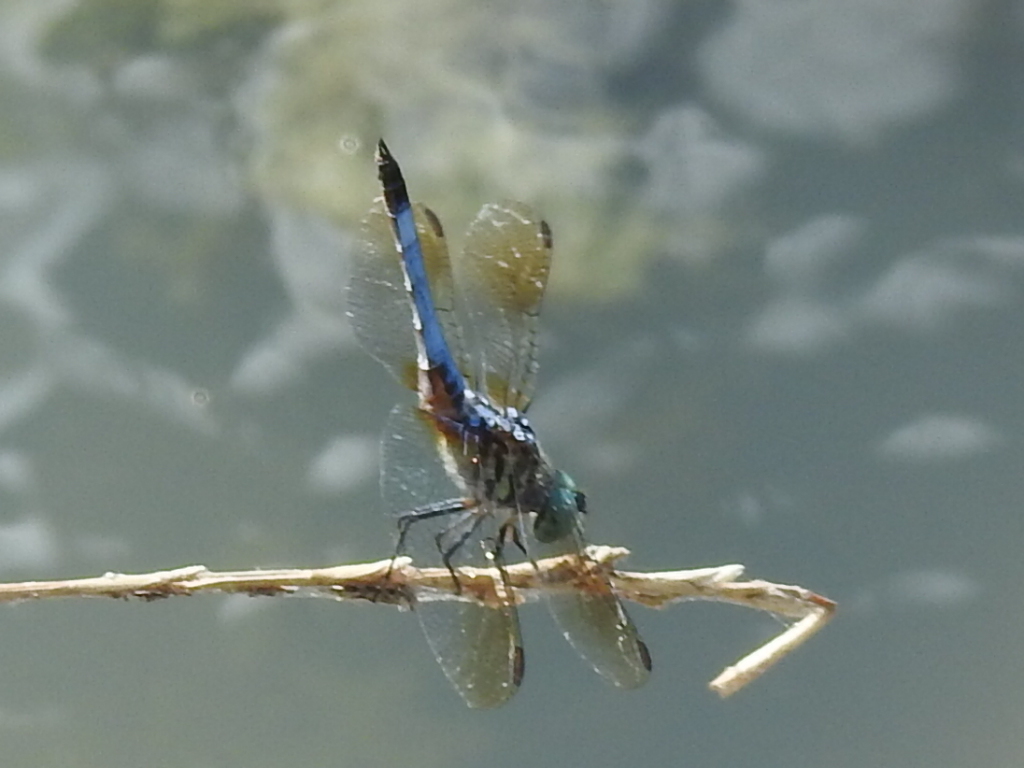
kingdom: Animalia
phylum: Arthropoda
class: Insecta
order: Odonata
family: Libellulidae
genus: Pachydiplax
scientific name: Pachydiplax longipennis
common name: Blue dasher
